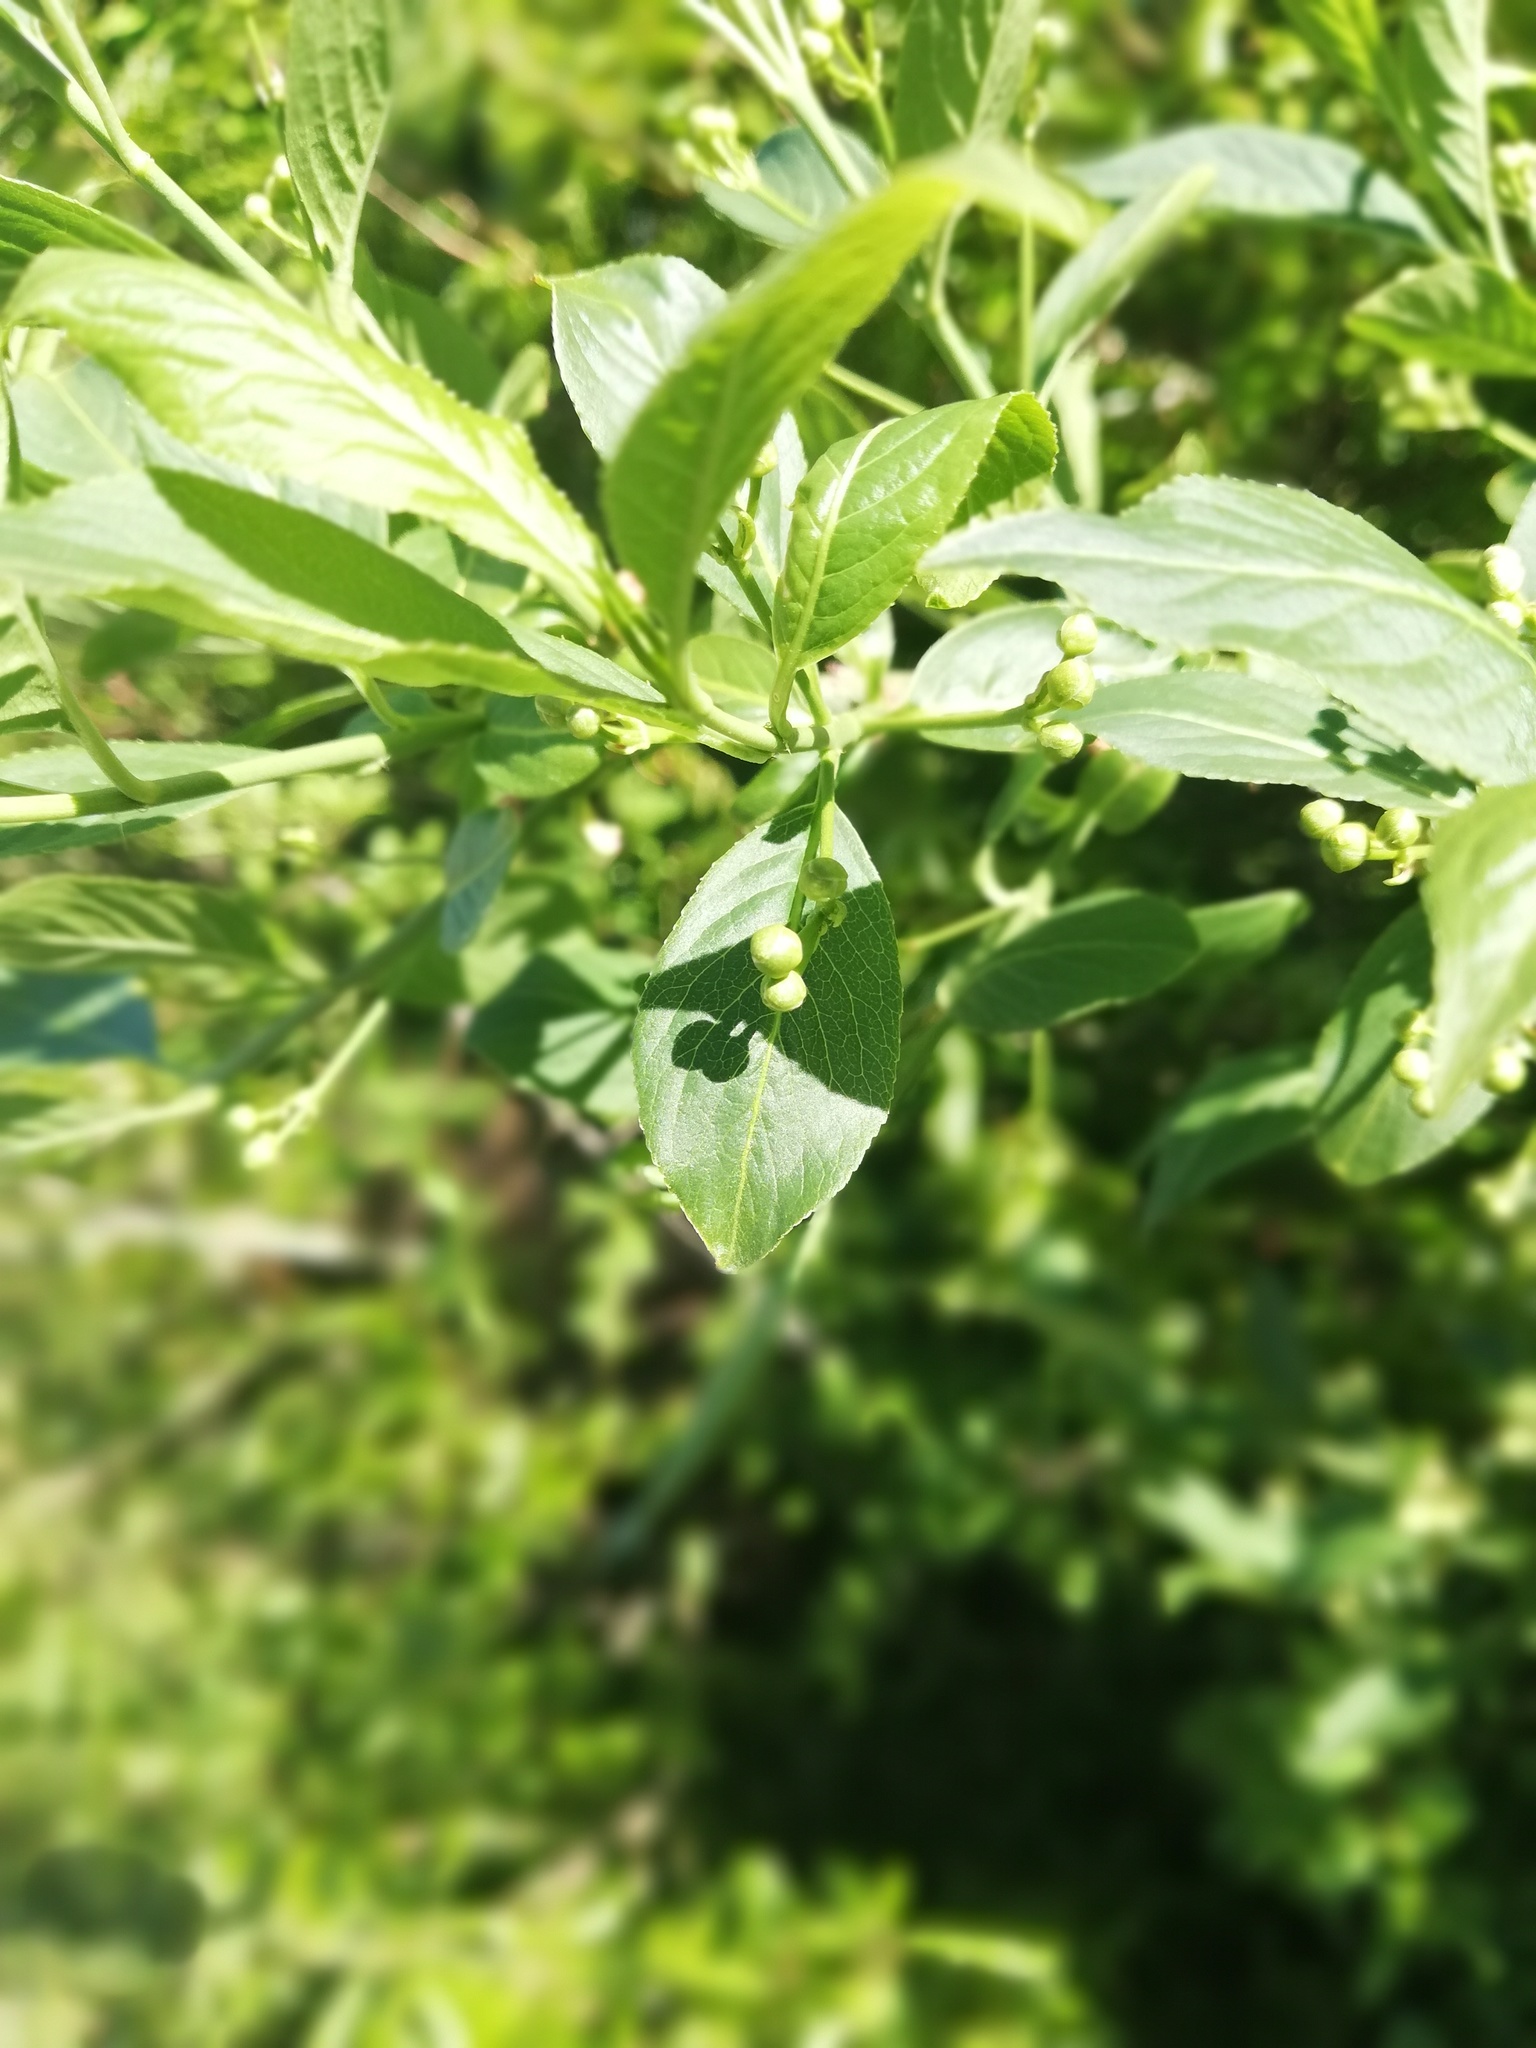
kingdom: Plantae
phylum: Tracheophyta
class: Magnoliopsida
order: Celastrales
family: Celastraceae
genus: Euonymus
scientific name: Euonymus europaeus
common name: Spindle
